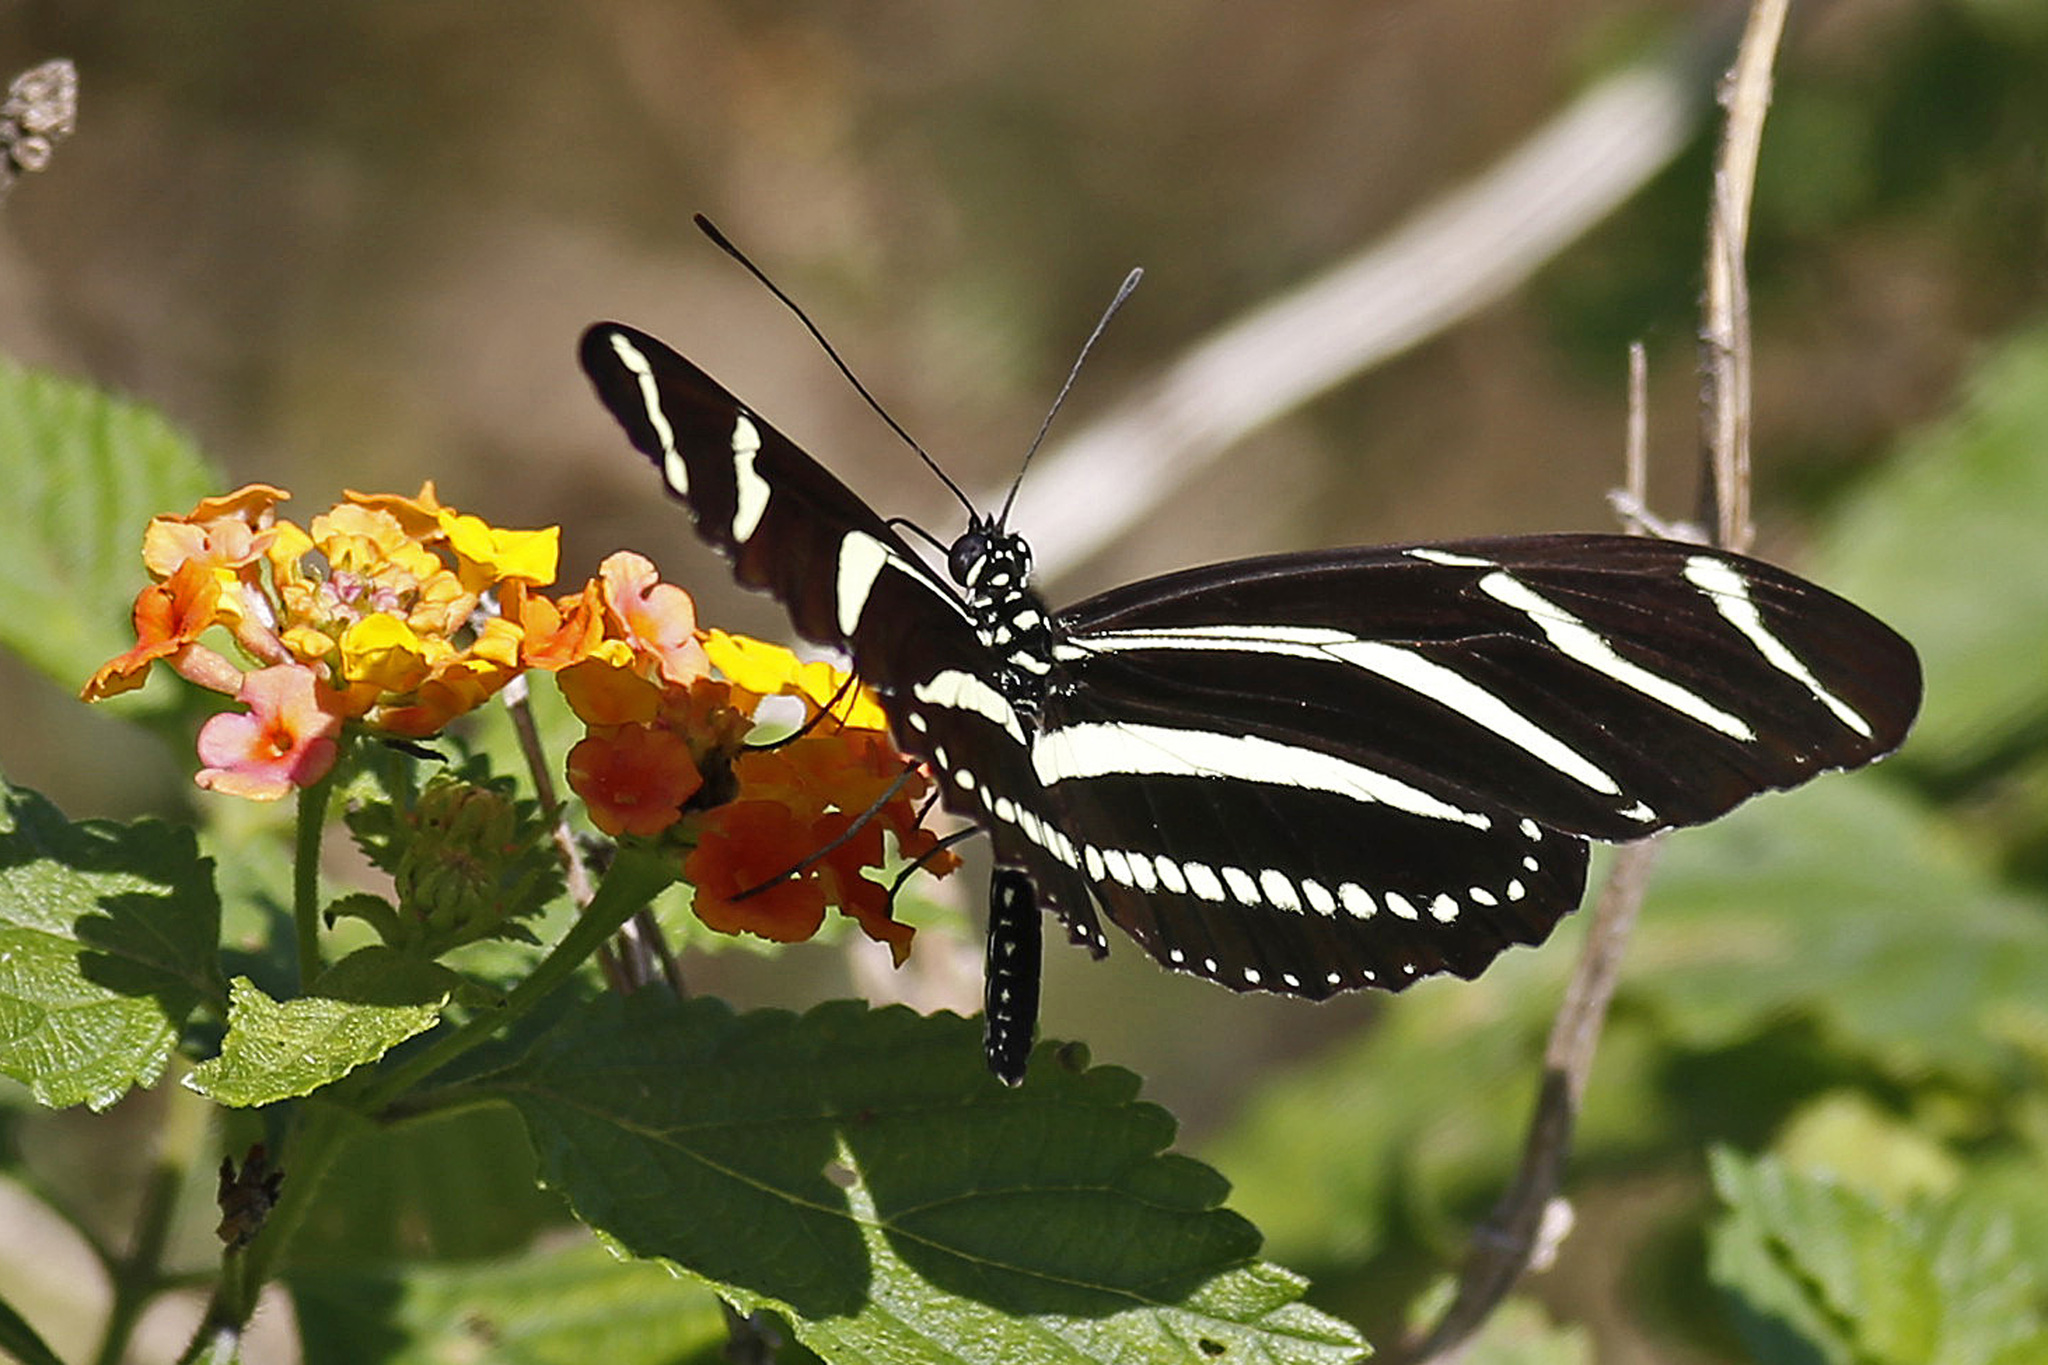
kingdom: Animalia
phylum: Arthropoda
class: Insecta
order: Lepidoptera
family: Nymphalidae
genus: Heliconius
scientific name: Heliconius charithonia
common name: Zebra long wing
